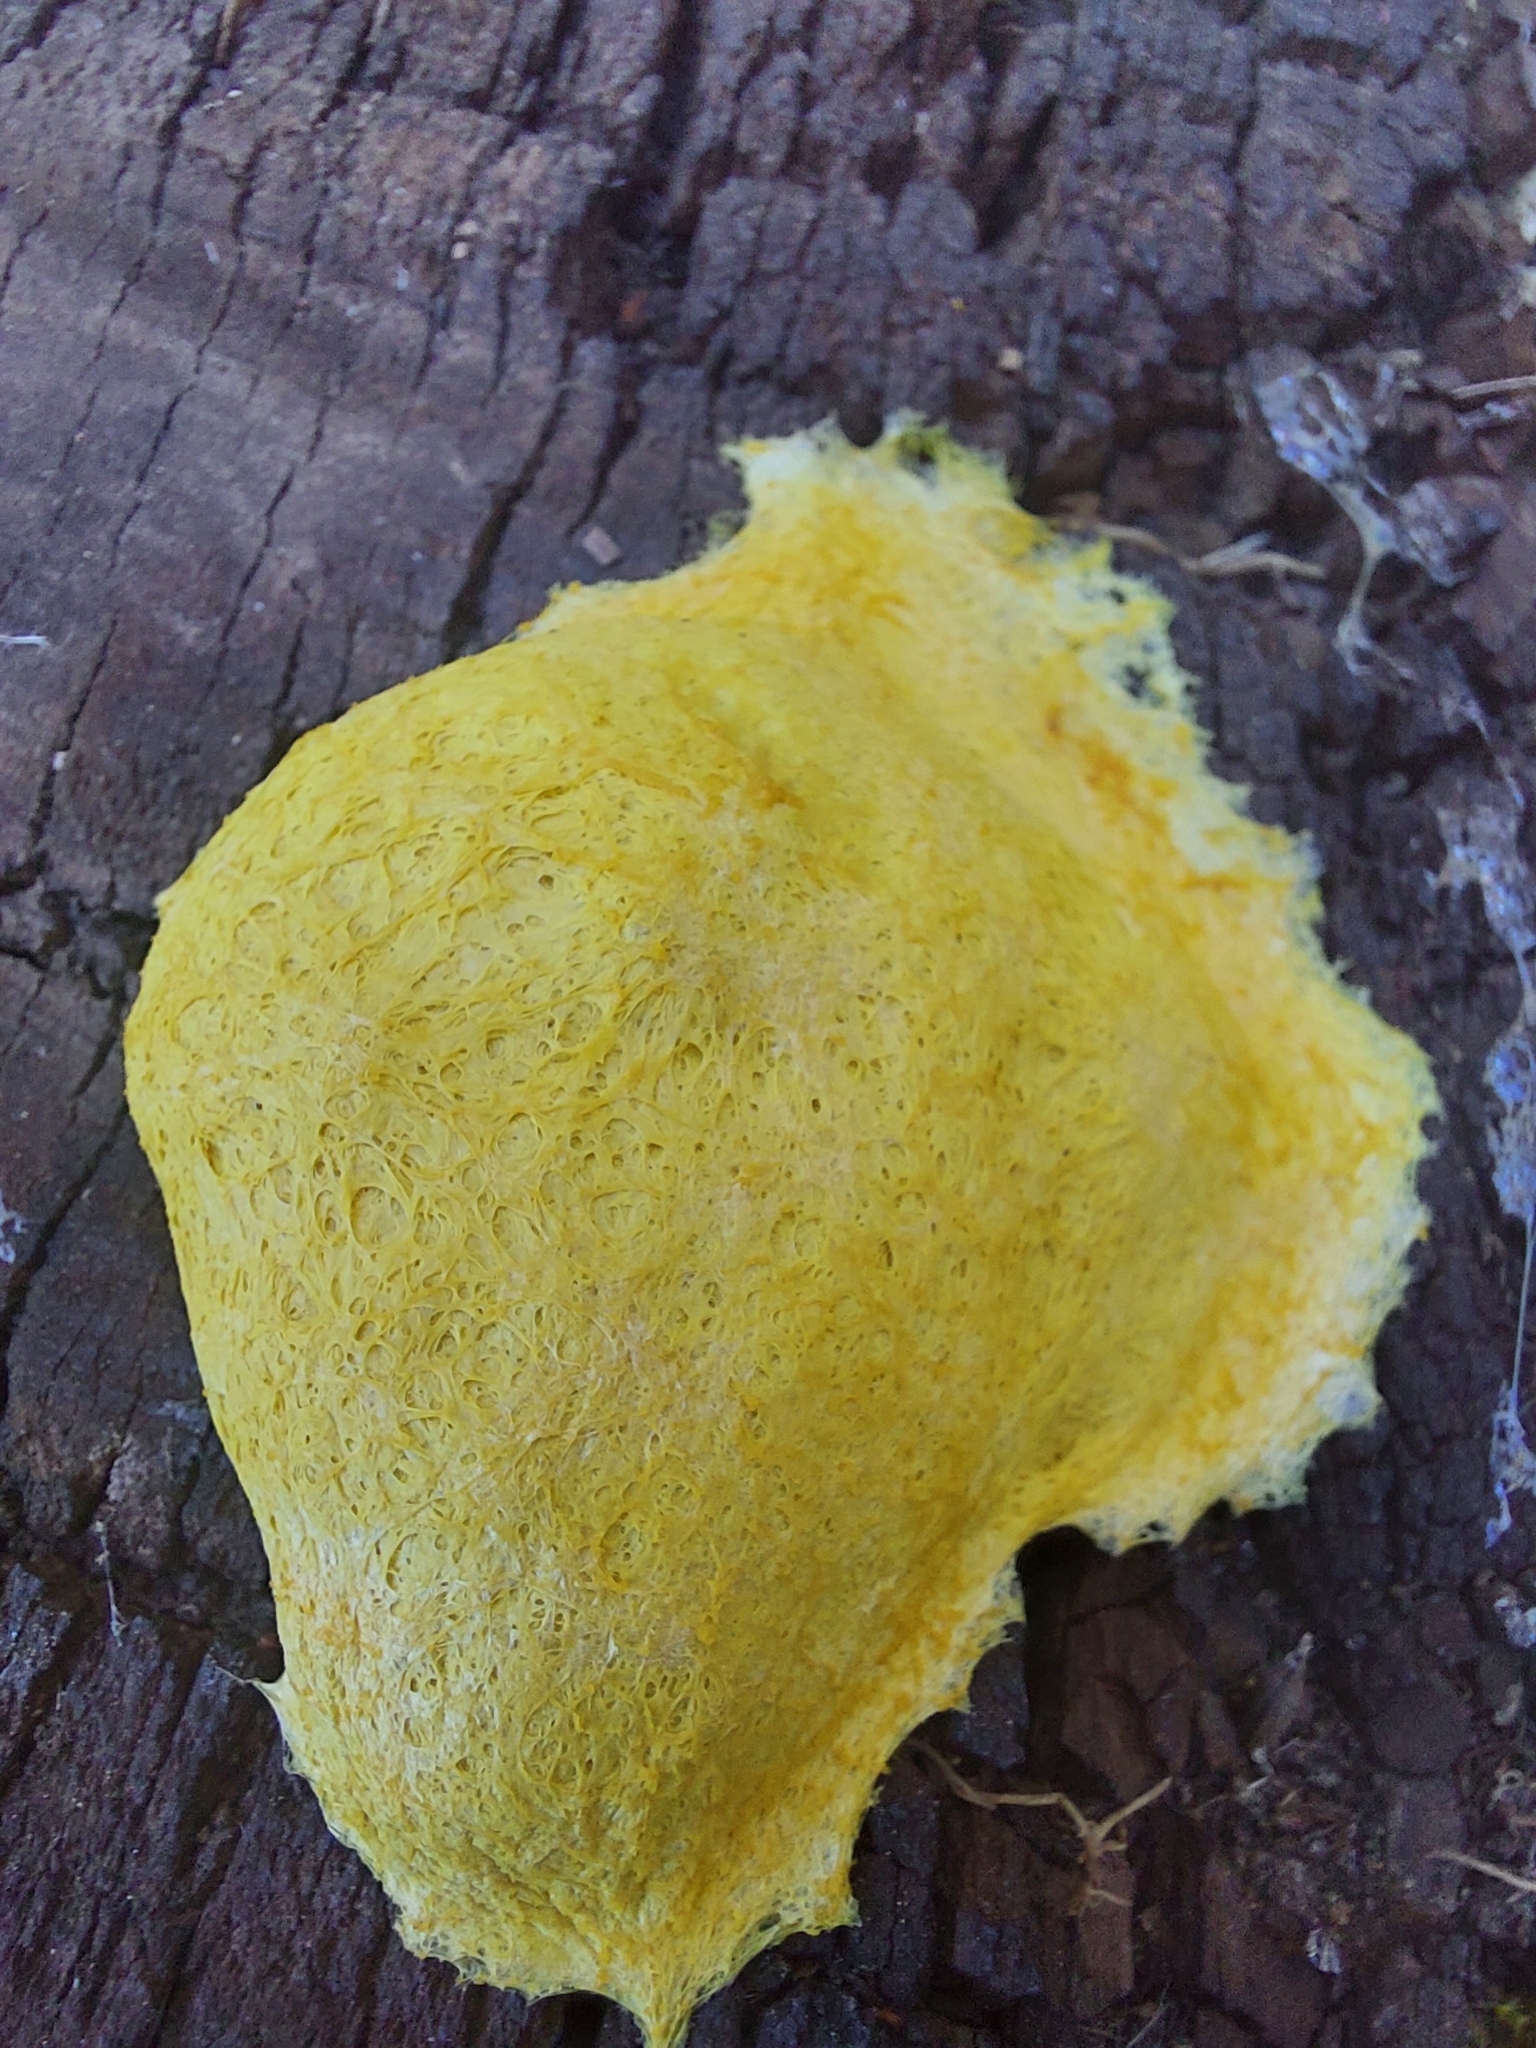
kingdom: Protozoa
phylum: Mycetozoa
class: Myxomycetes
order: Physarales
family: Physaraceae
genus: Fuligo
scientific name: Fuligo septica
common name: Dog vomit slime mold
